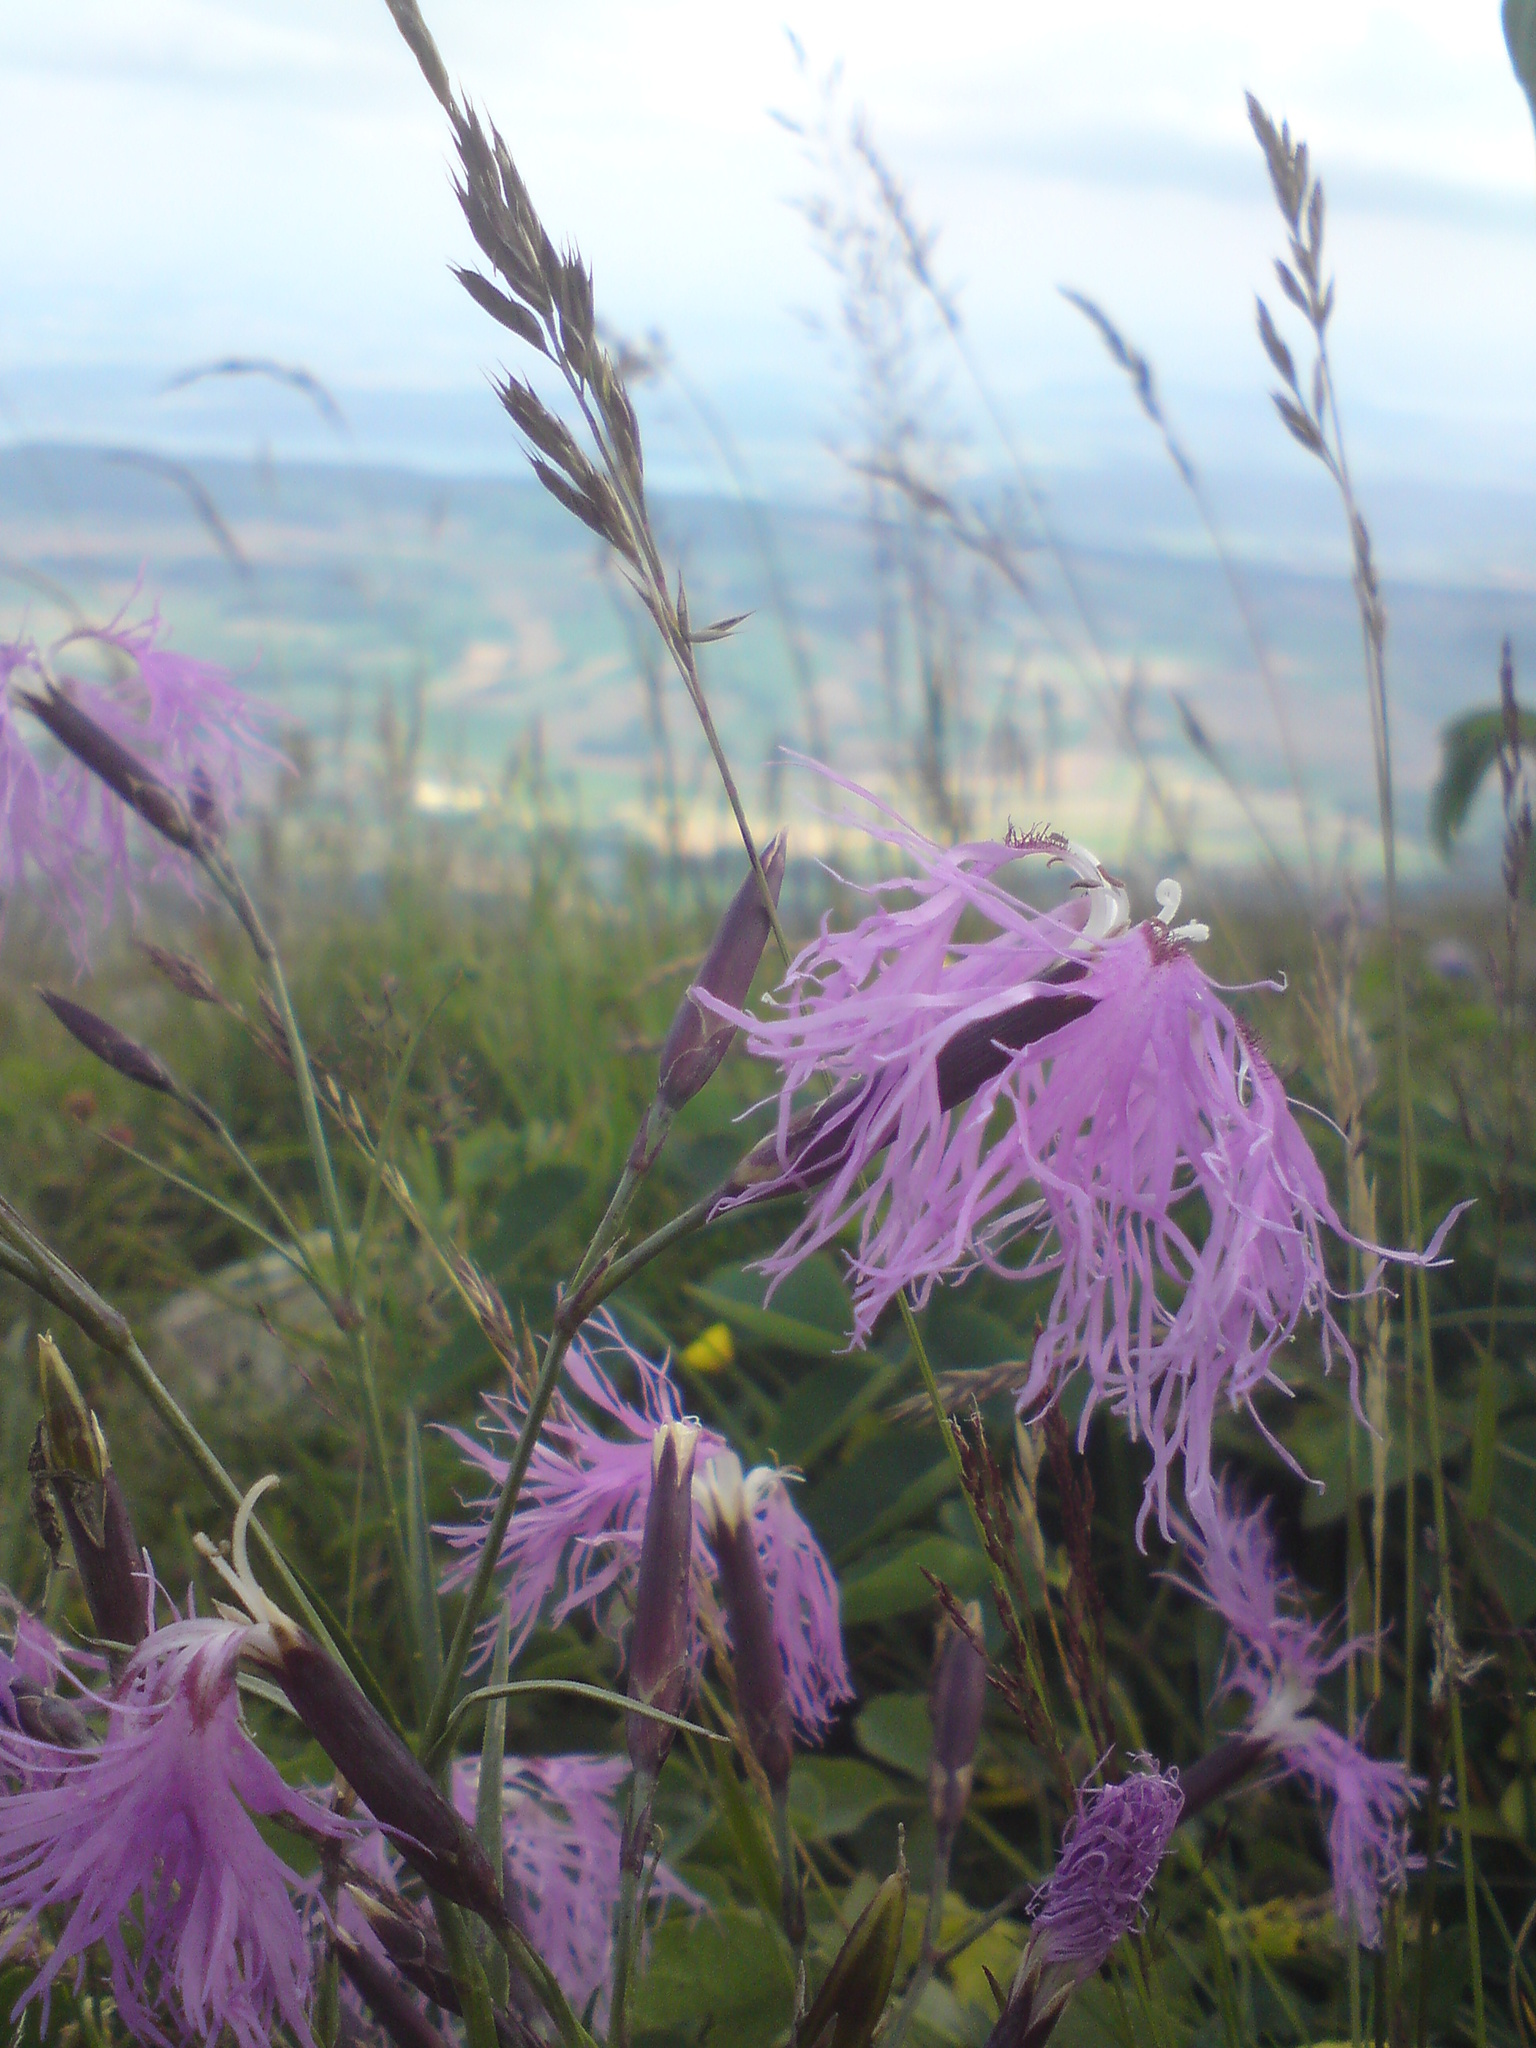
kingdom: Plantae
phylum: Tracheophyta
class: Magnoliopsida
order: Caryophyllales
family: Caryophyllaceae
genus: Dianthus
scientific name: Dianthus superbus
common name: Fringed pink
